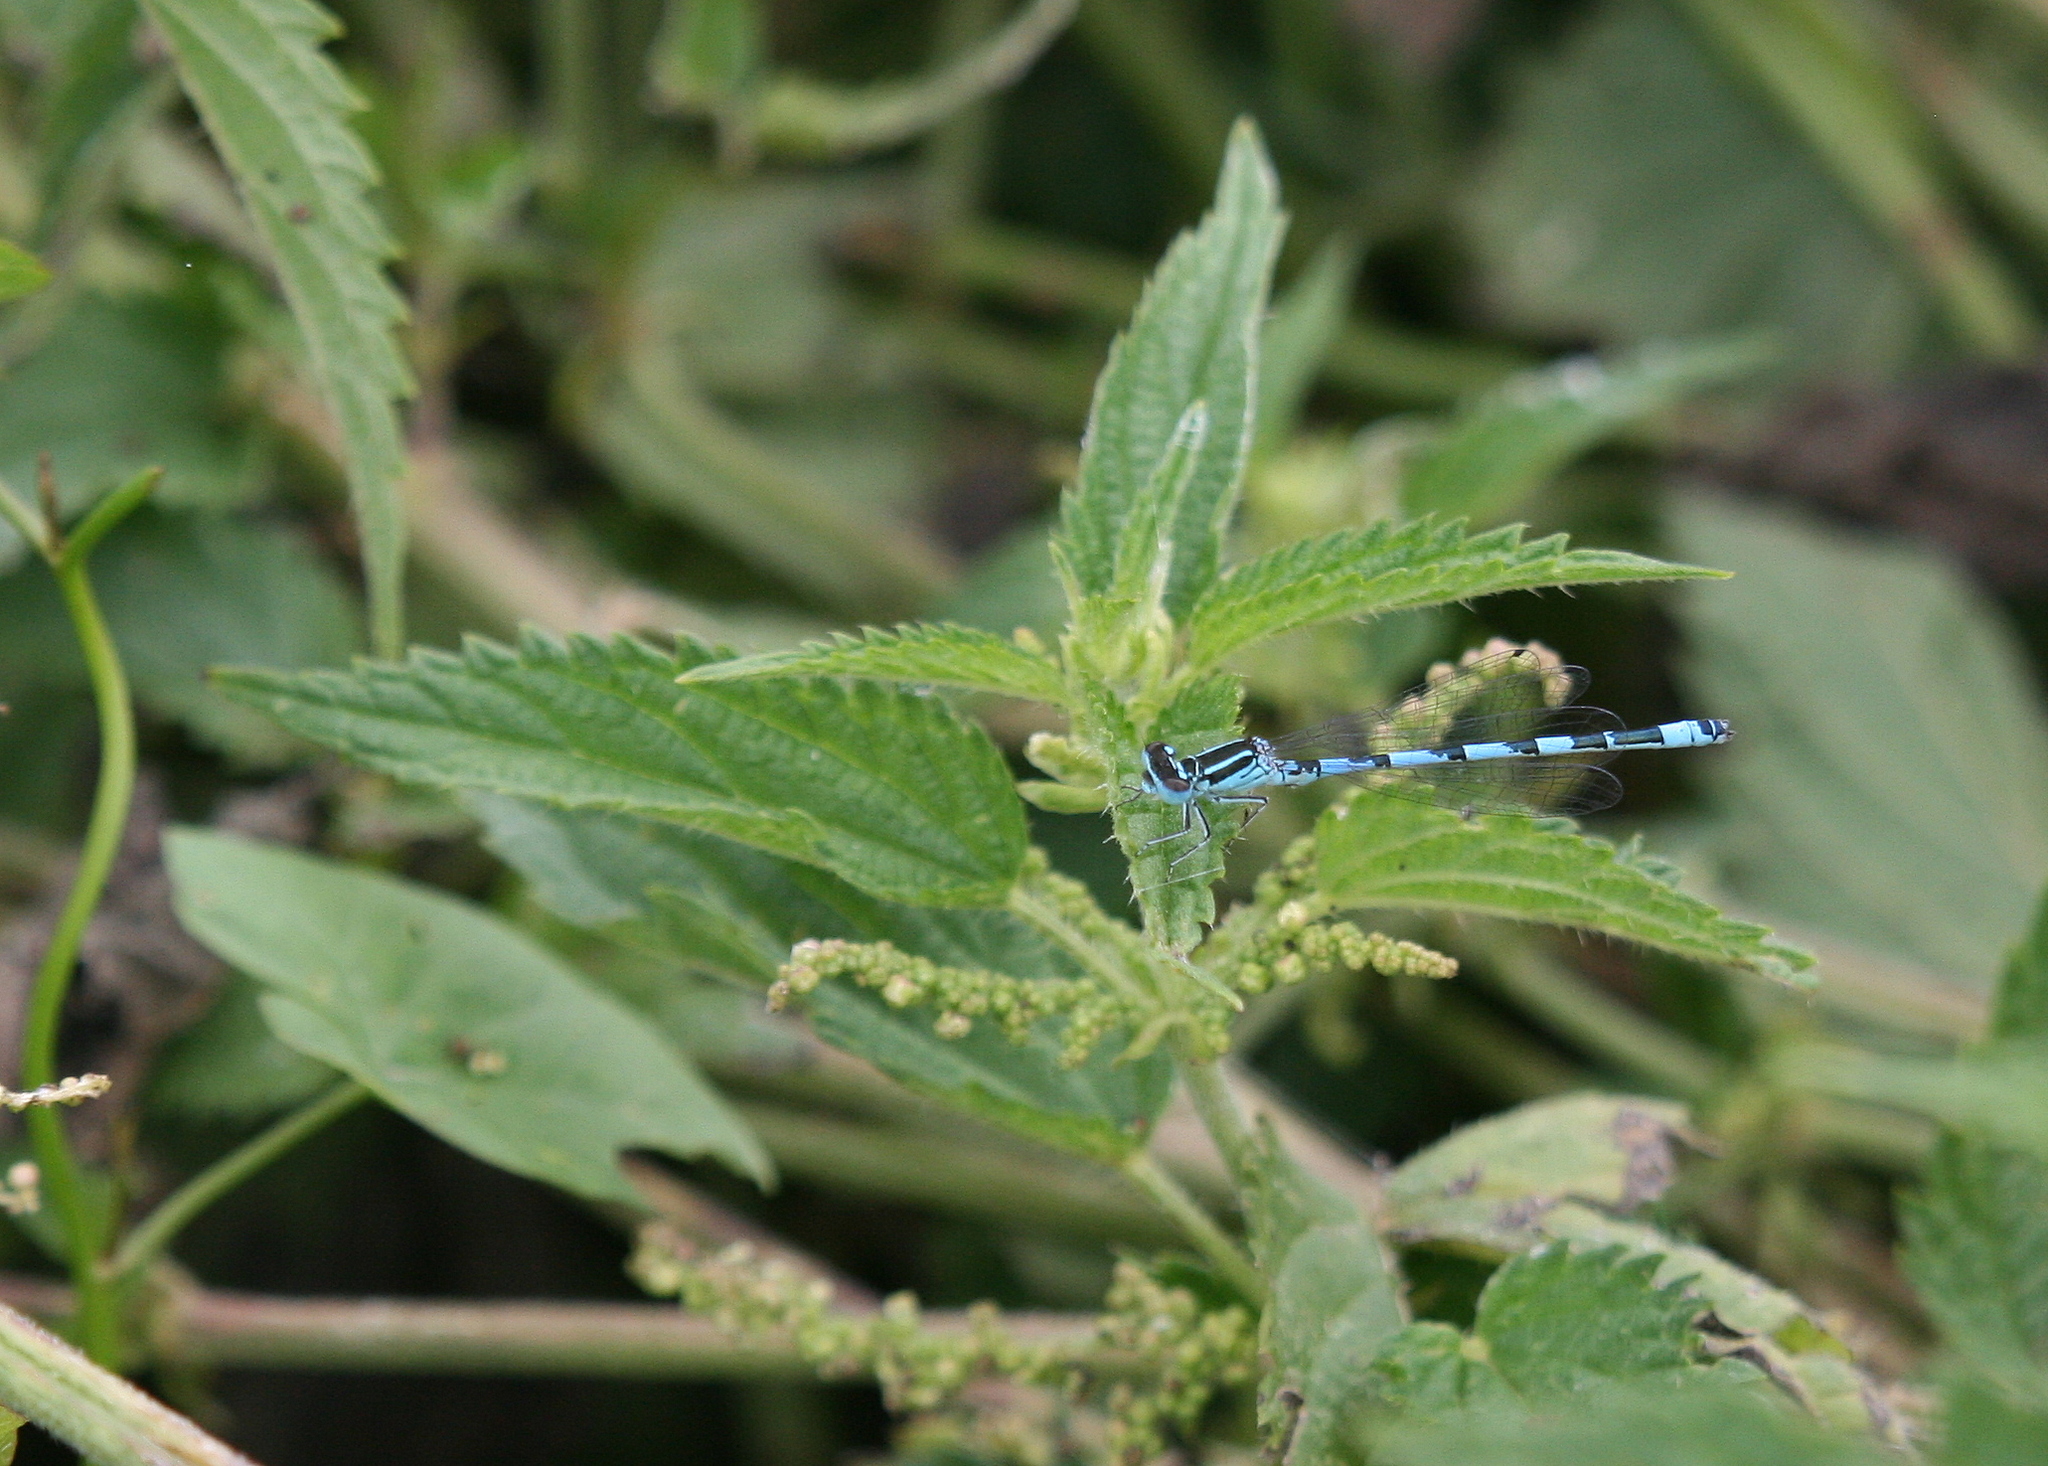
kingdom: Animalia
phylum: Arthropoda
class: Insecta
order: Odonata
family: Coenagrionidae
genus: Coenagrion
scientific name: Coenagrion mercuriale
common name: Southern damselfly
